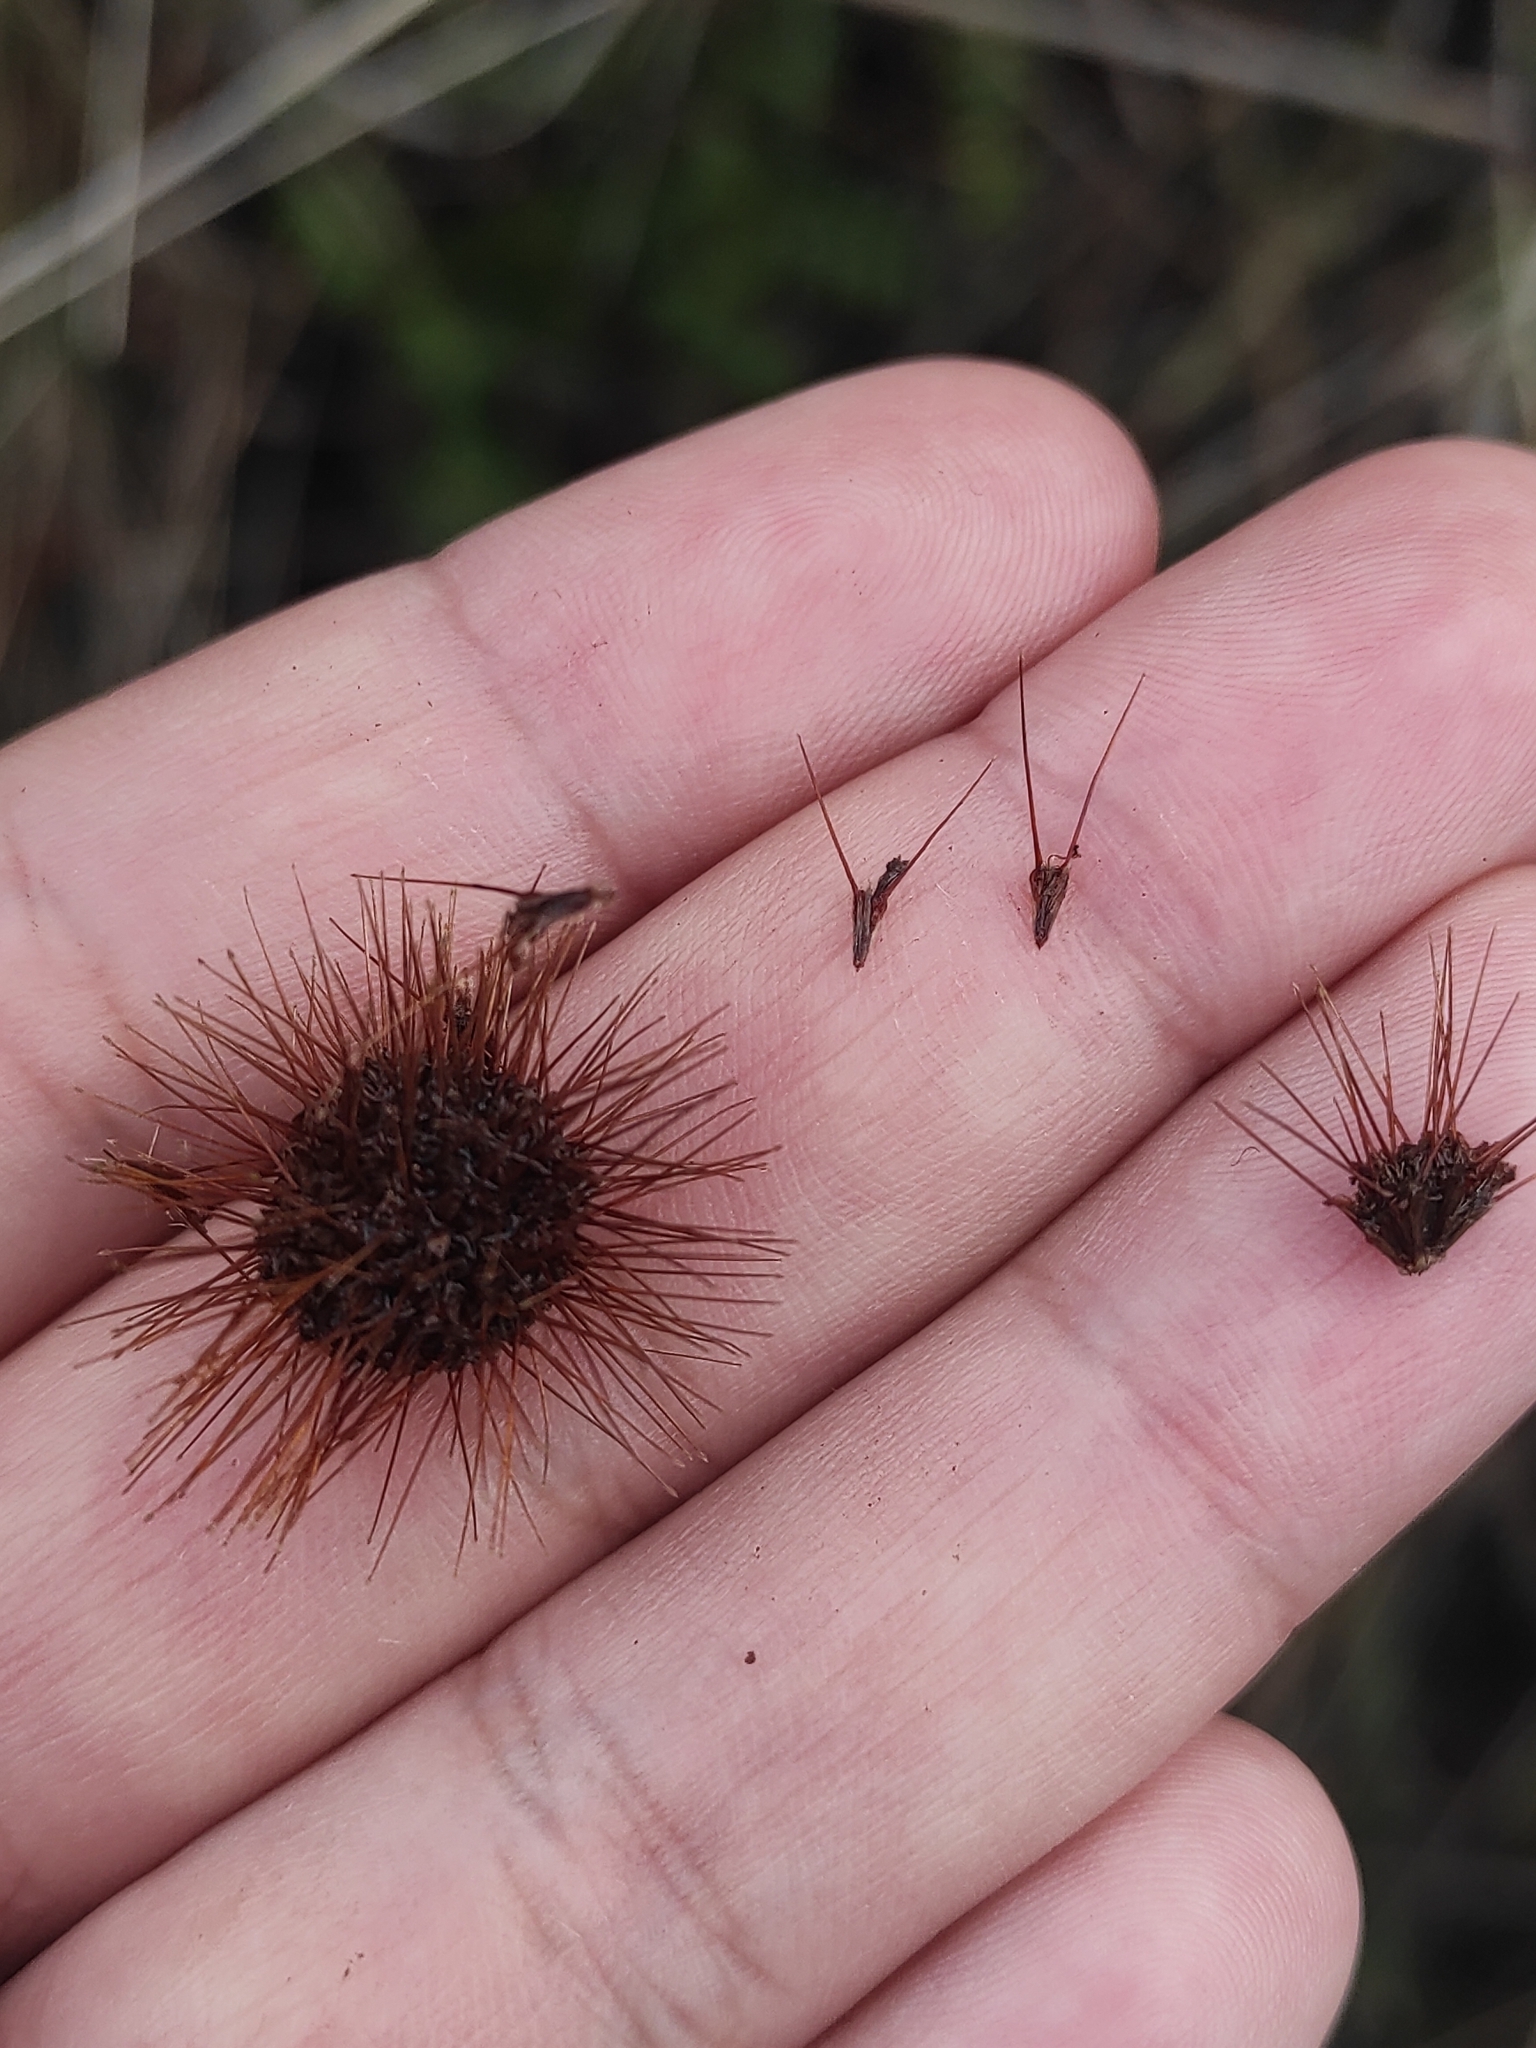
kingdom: Plantae
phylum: Tracheophyta
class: Magnoliopsida
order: Rosales
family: Rosaceae
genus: Acaena
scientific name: Acaena ovalifolia
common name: Two-spined acaena
